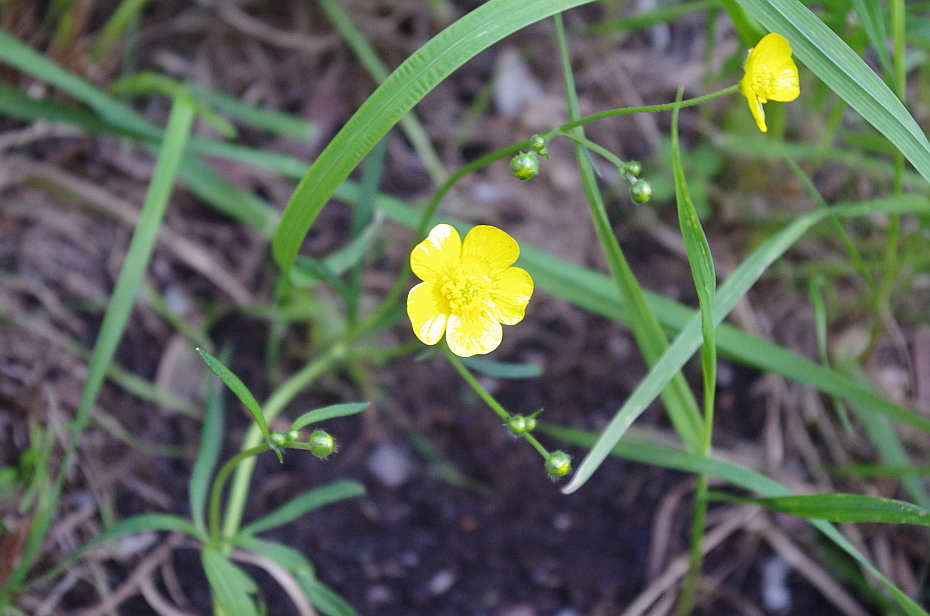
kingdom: Plantae
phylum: Tracheophyta
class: Magnoliopsida
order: Ranunculales
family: Ranunculaceae
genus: Ranunculus
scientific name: Ranunculus acris
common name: Meadow buttercup
